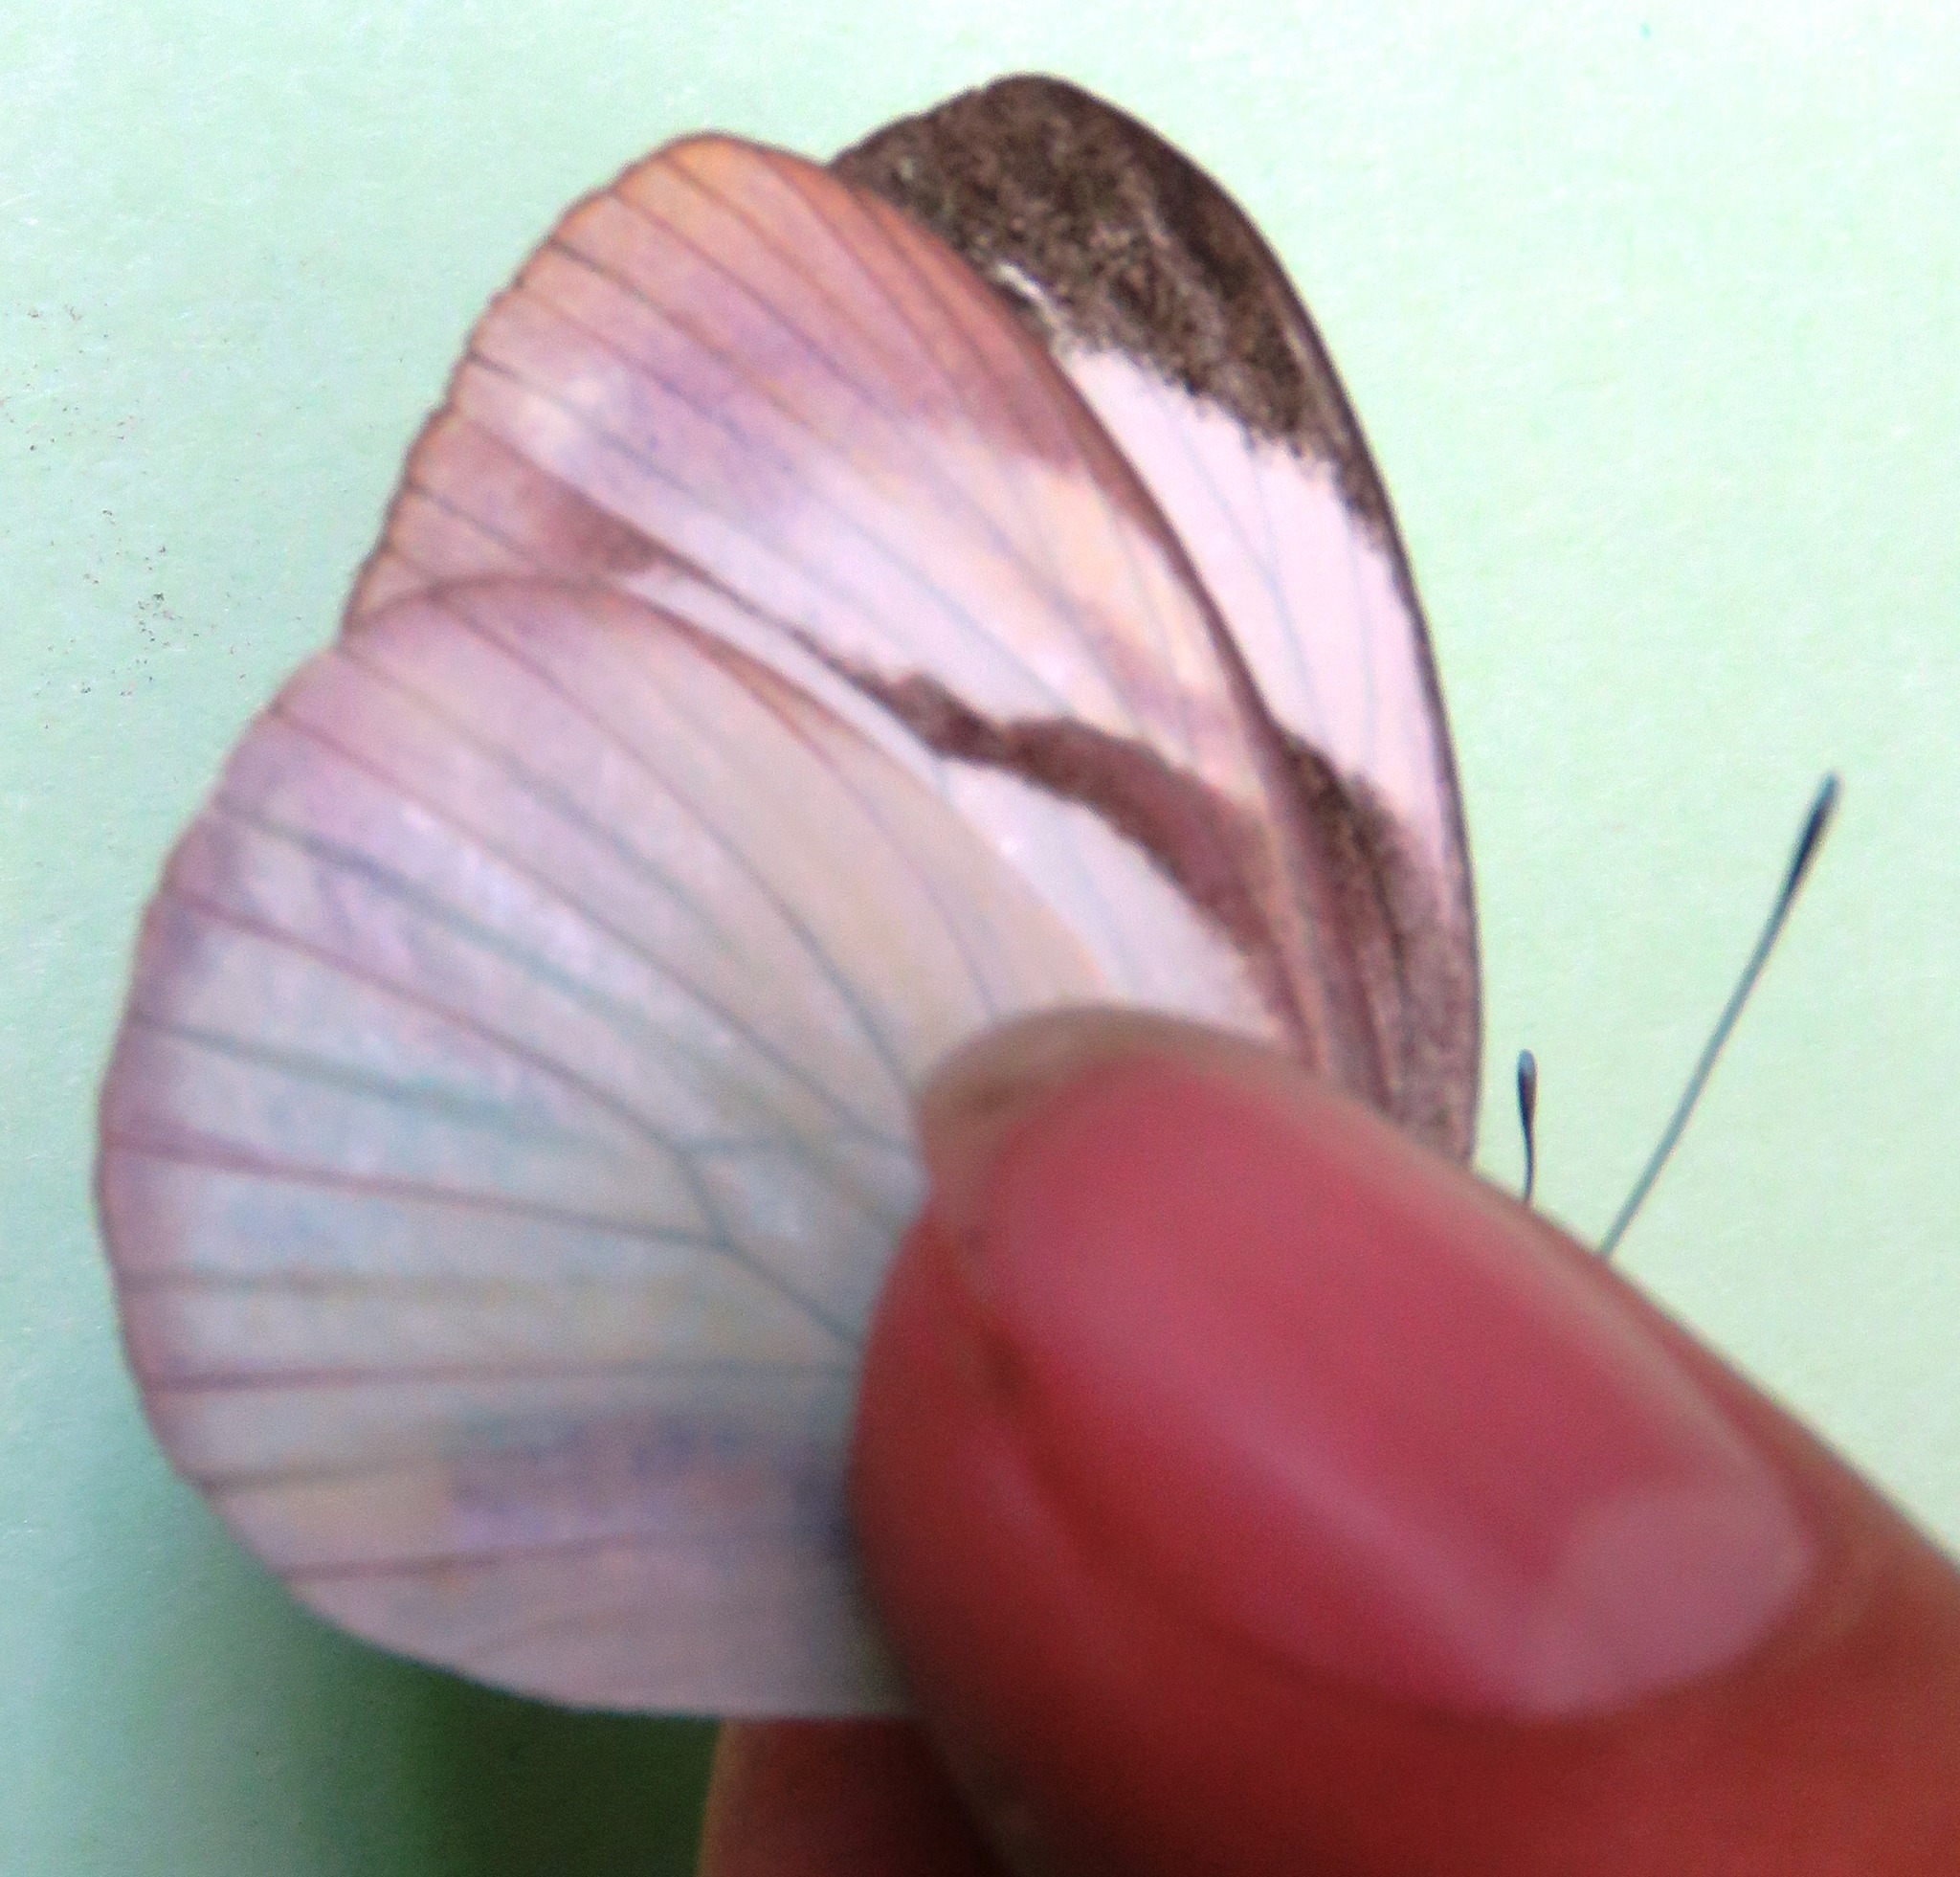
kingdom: Animalia
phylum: Arthropoda
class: Insecta
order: Lepidoptera
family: Pieridae
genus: Itaballia
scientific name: Itaballia demophile
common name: Cross-barred white
